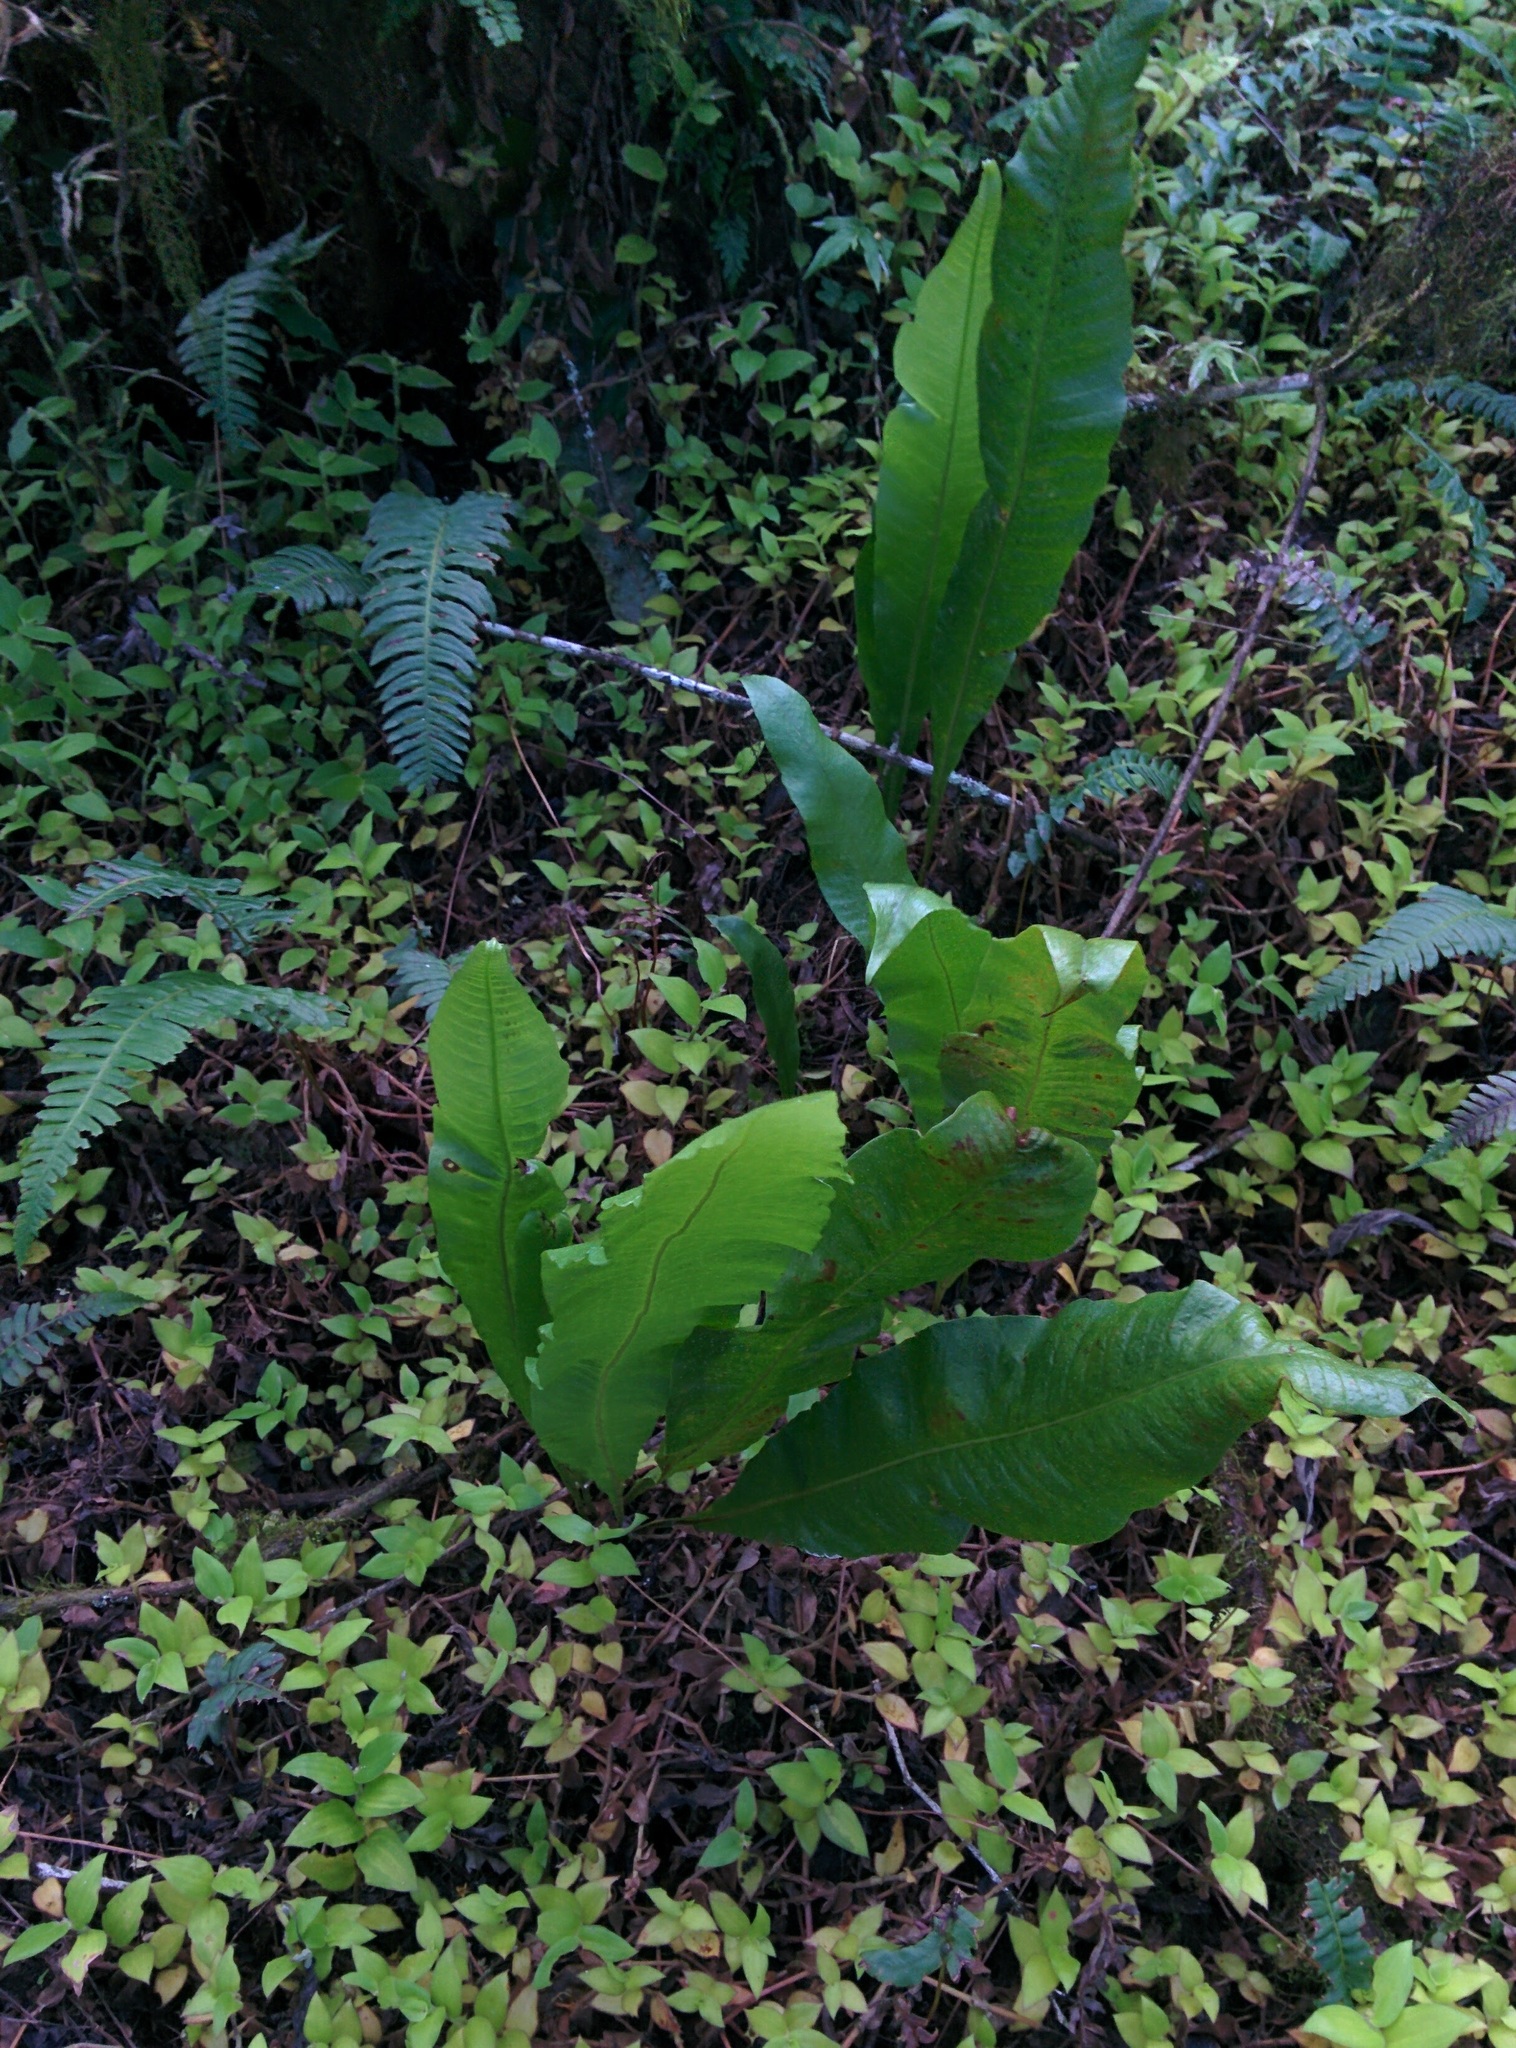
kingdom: Plantae
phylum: Tracheophyta
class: Polypodiopsida
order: Polypodiales
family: Polypodiaceae
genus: Campyloneurum
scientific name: Campyloneurum phyllitidis
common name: Cow-tongue fern
